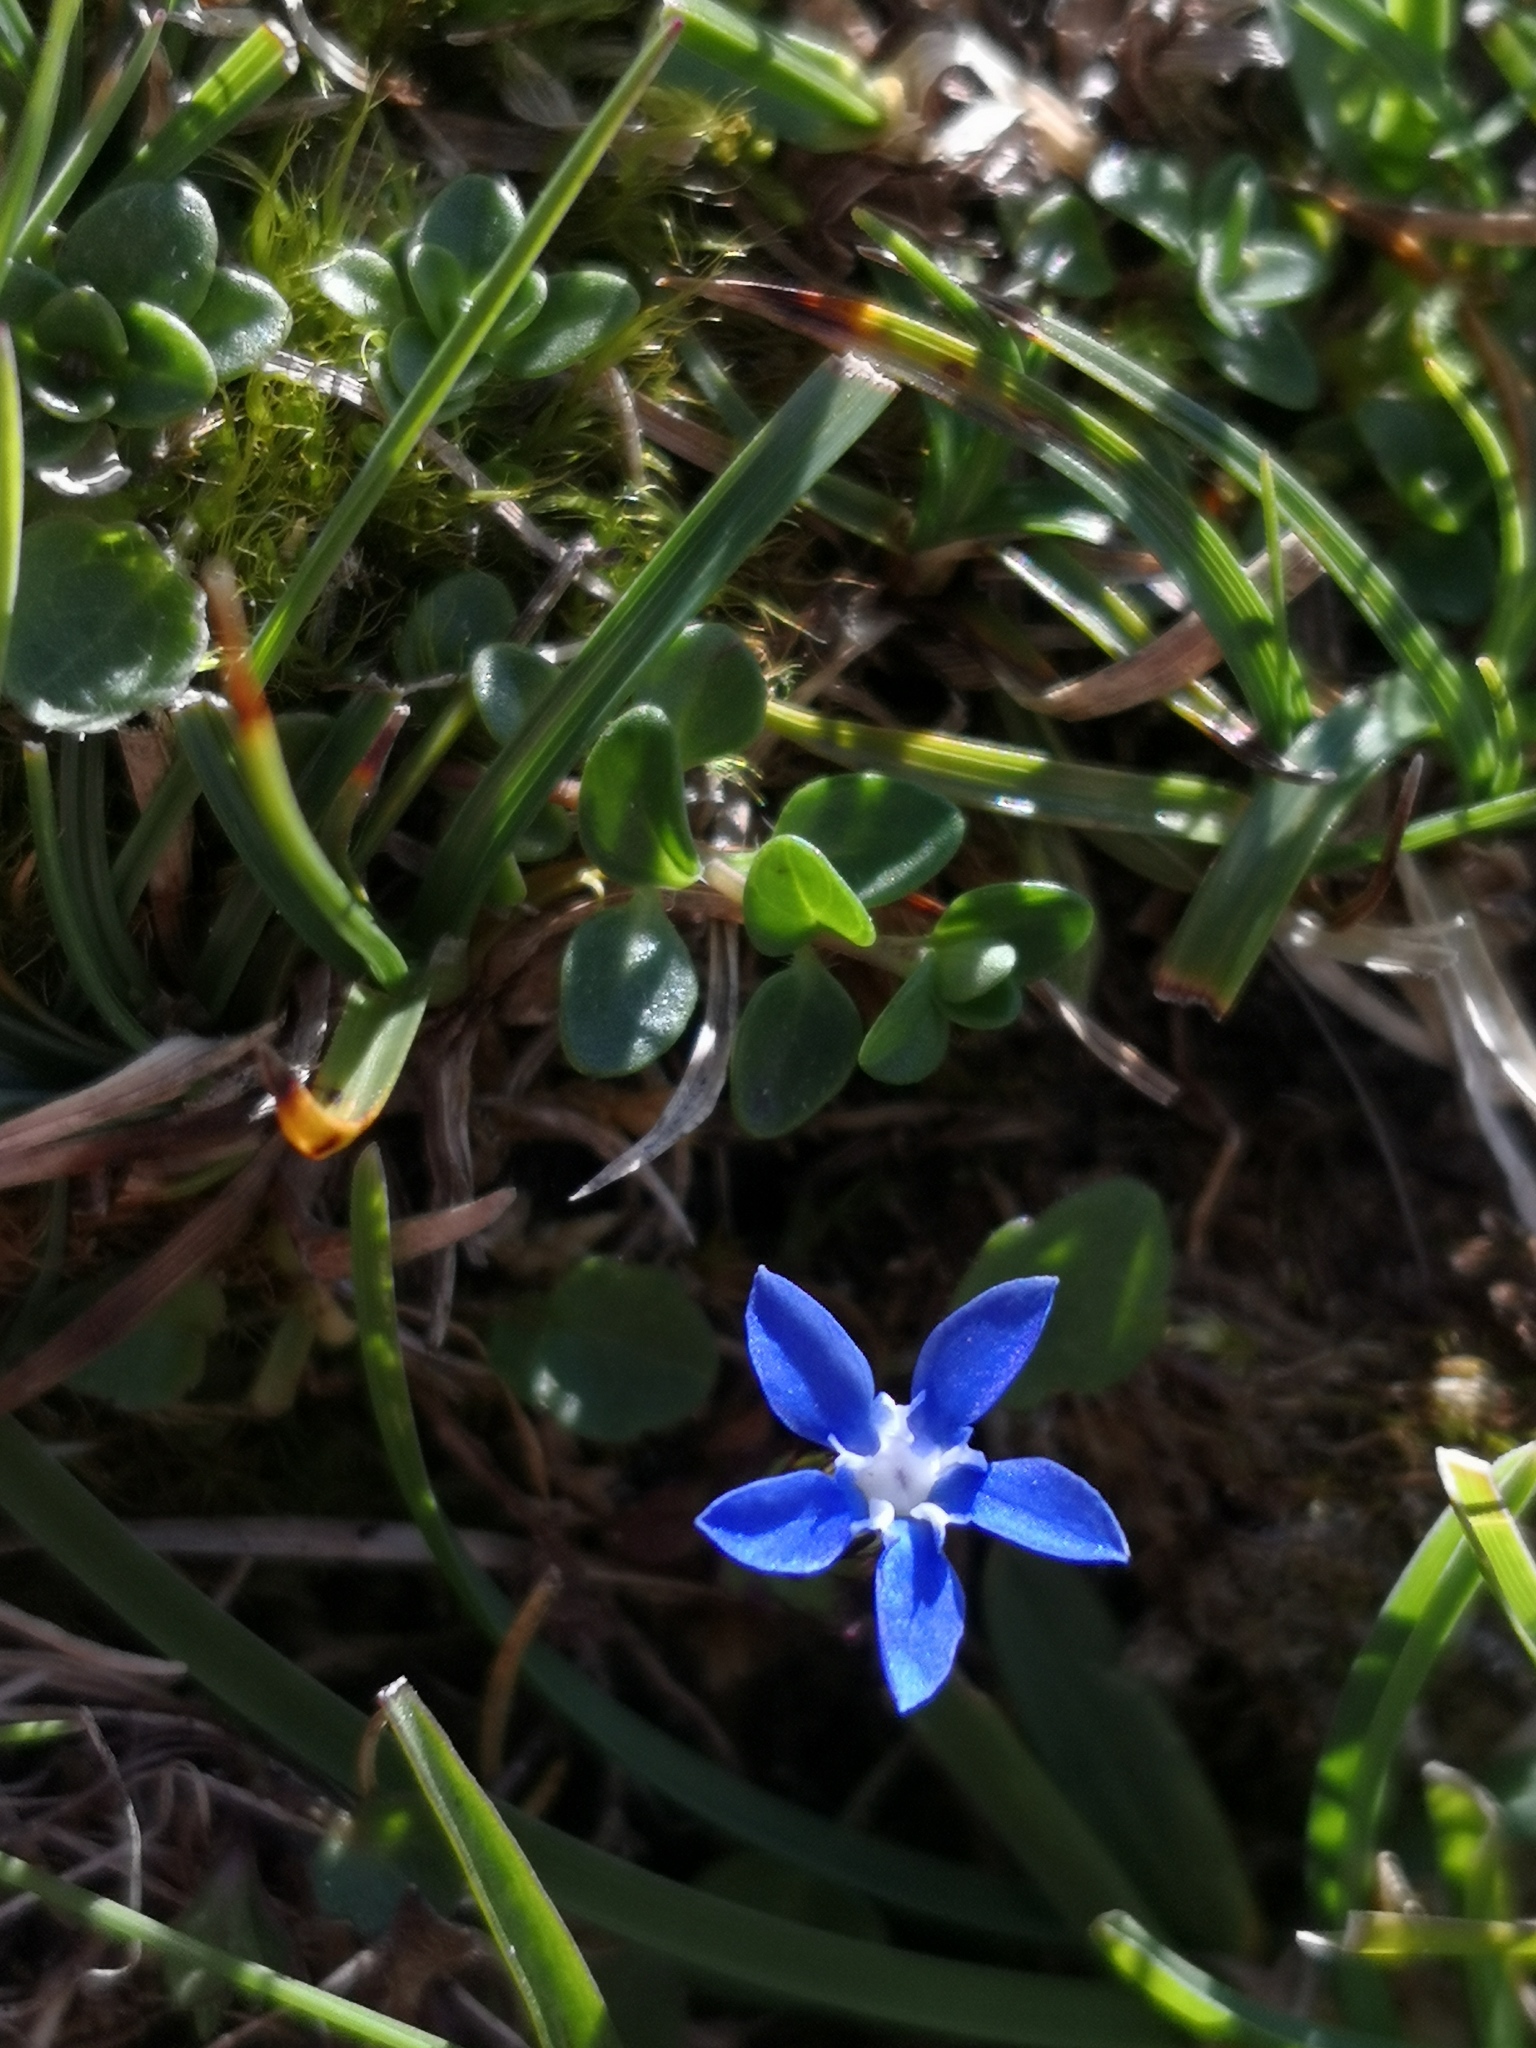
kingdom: Plantae
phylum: Tracheophyta
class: Magnoliopsida
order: Gentianales
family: Gentianaceae
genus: Gentiana
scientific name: Gentiana
